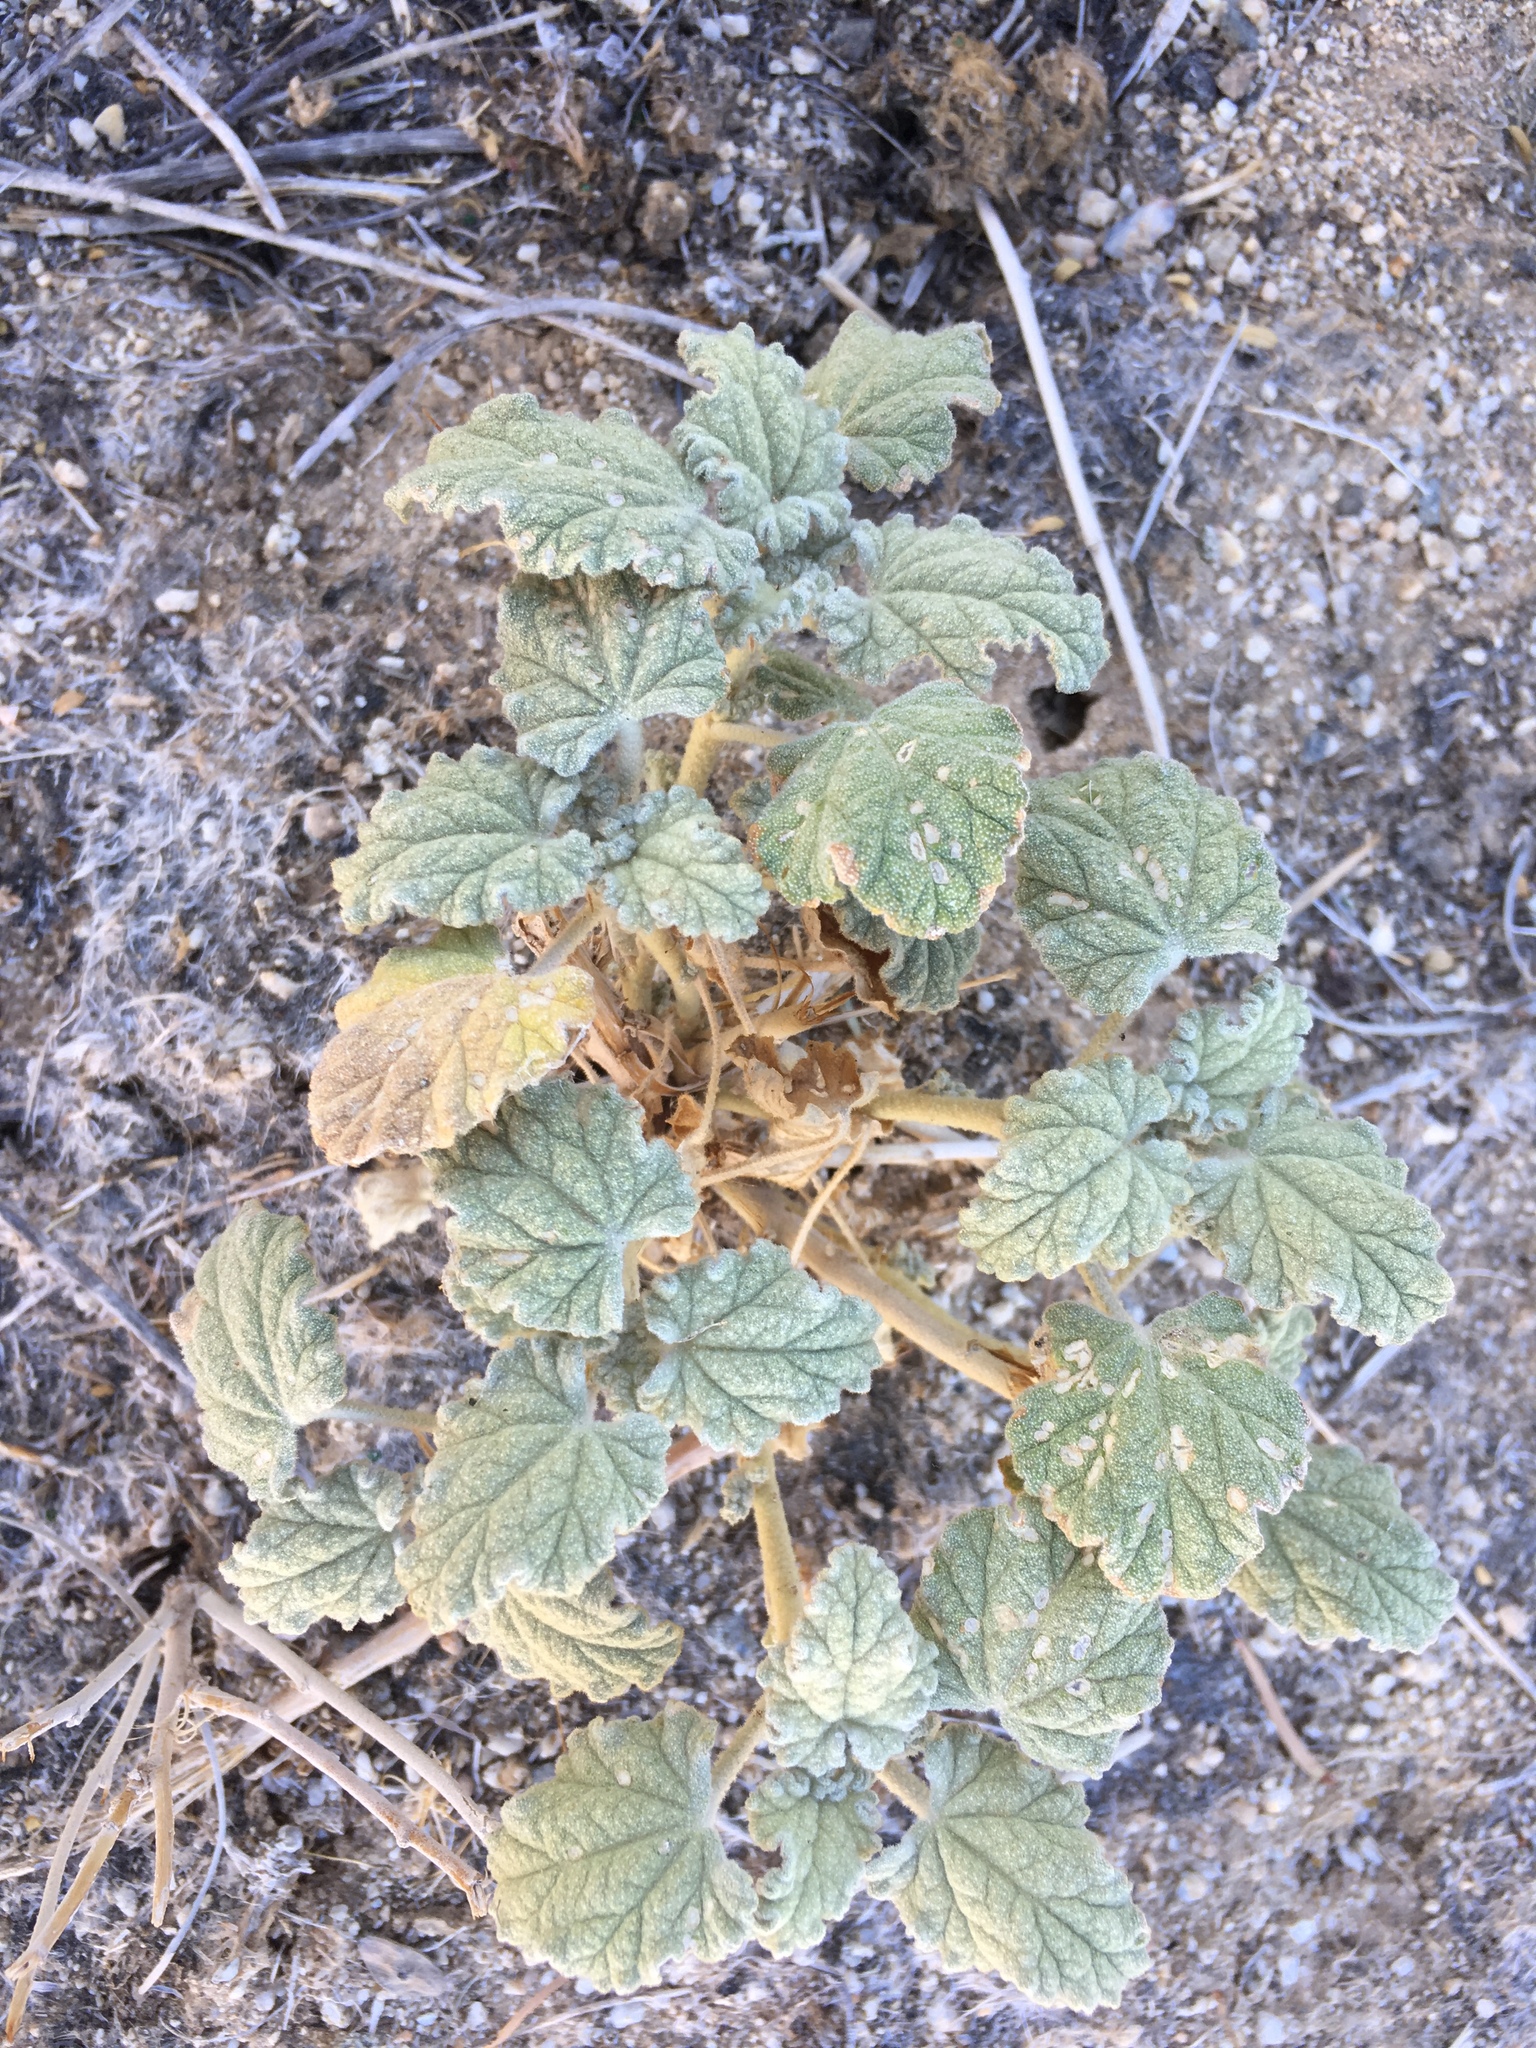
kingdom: Plantae
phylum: Tracheophyta
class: Magnoliopsida
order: Malvales
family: Malvaceae
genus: Sphaeralcea
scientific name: Sphaeralcea ambigua
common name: Apricot globe-mallow
